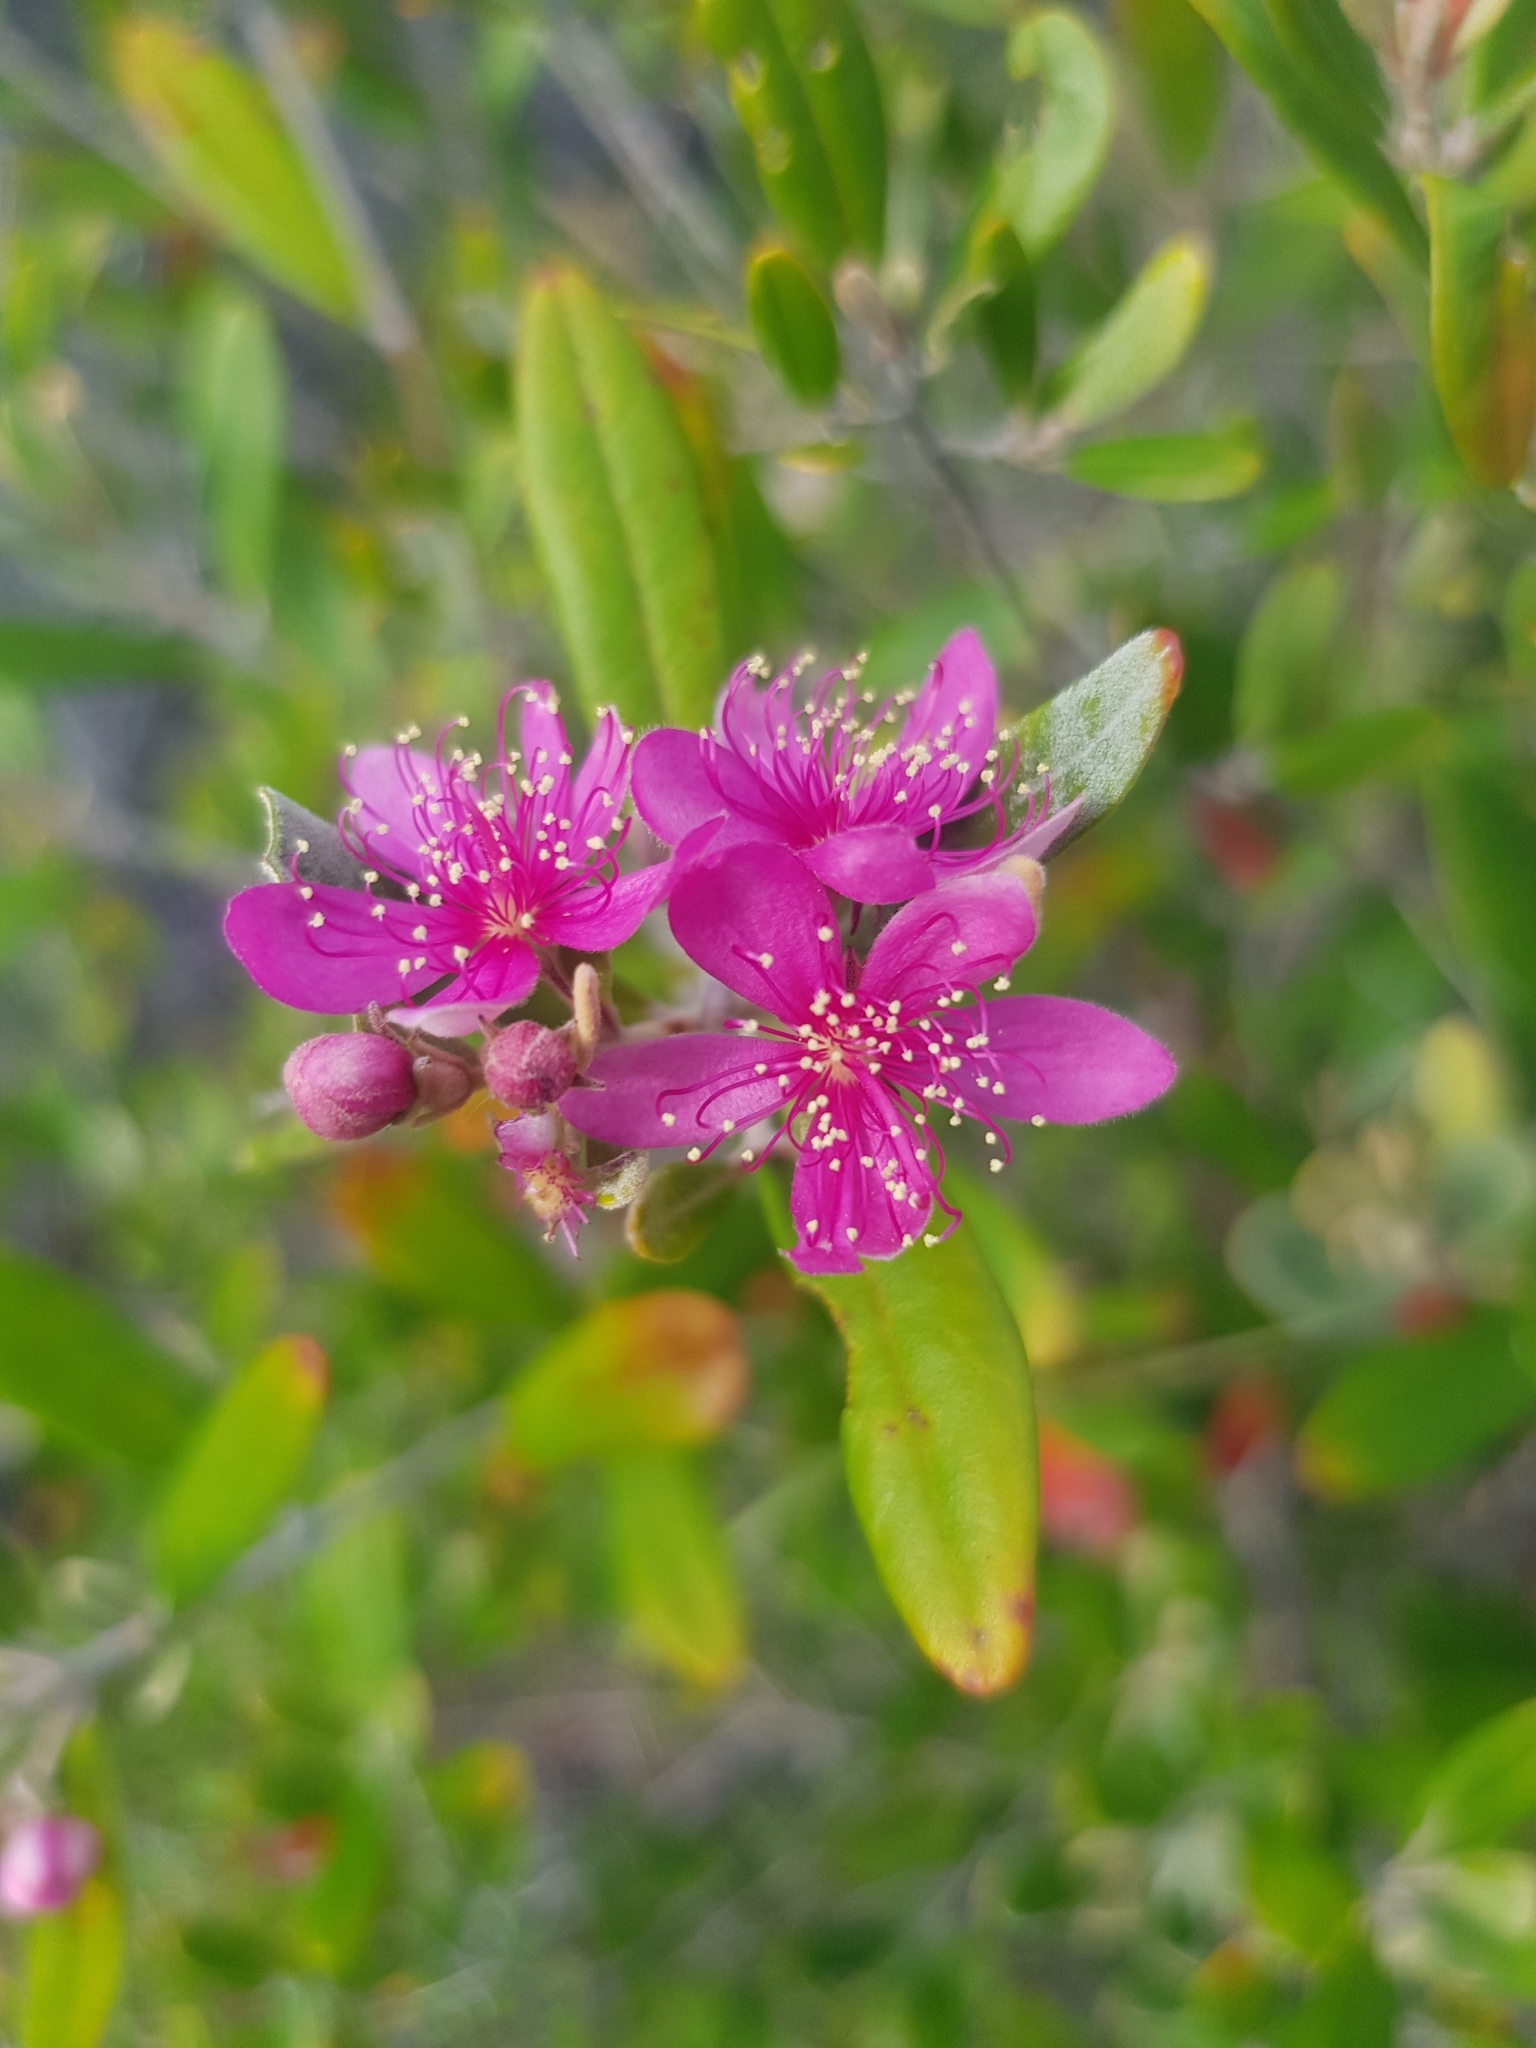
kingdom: Plantae
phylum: Tracheophyta
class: Magnoliopsida
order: Myrtales
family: Myrtaceae
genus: Lithomyrtus
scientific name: Lithomyrtus obtusa
